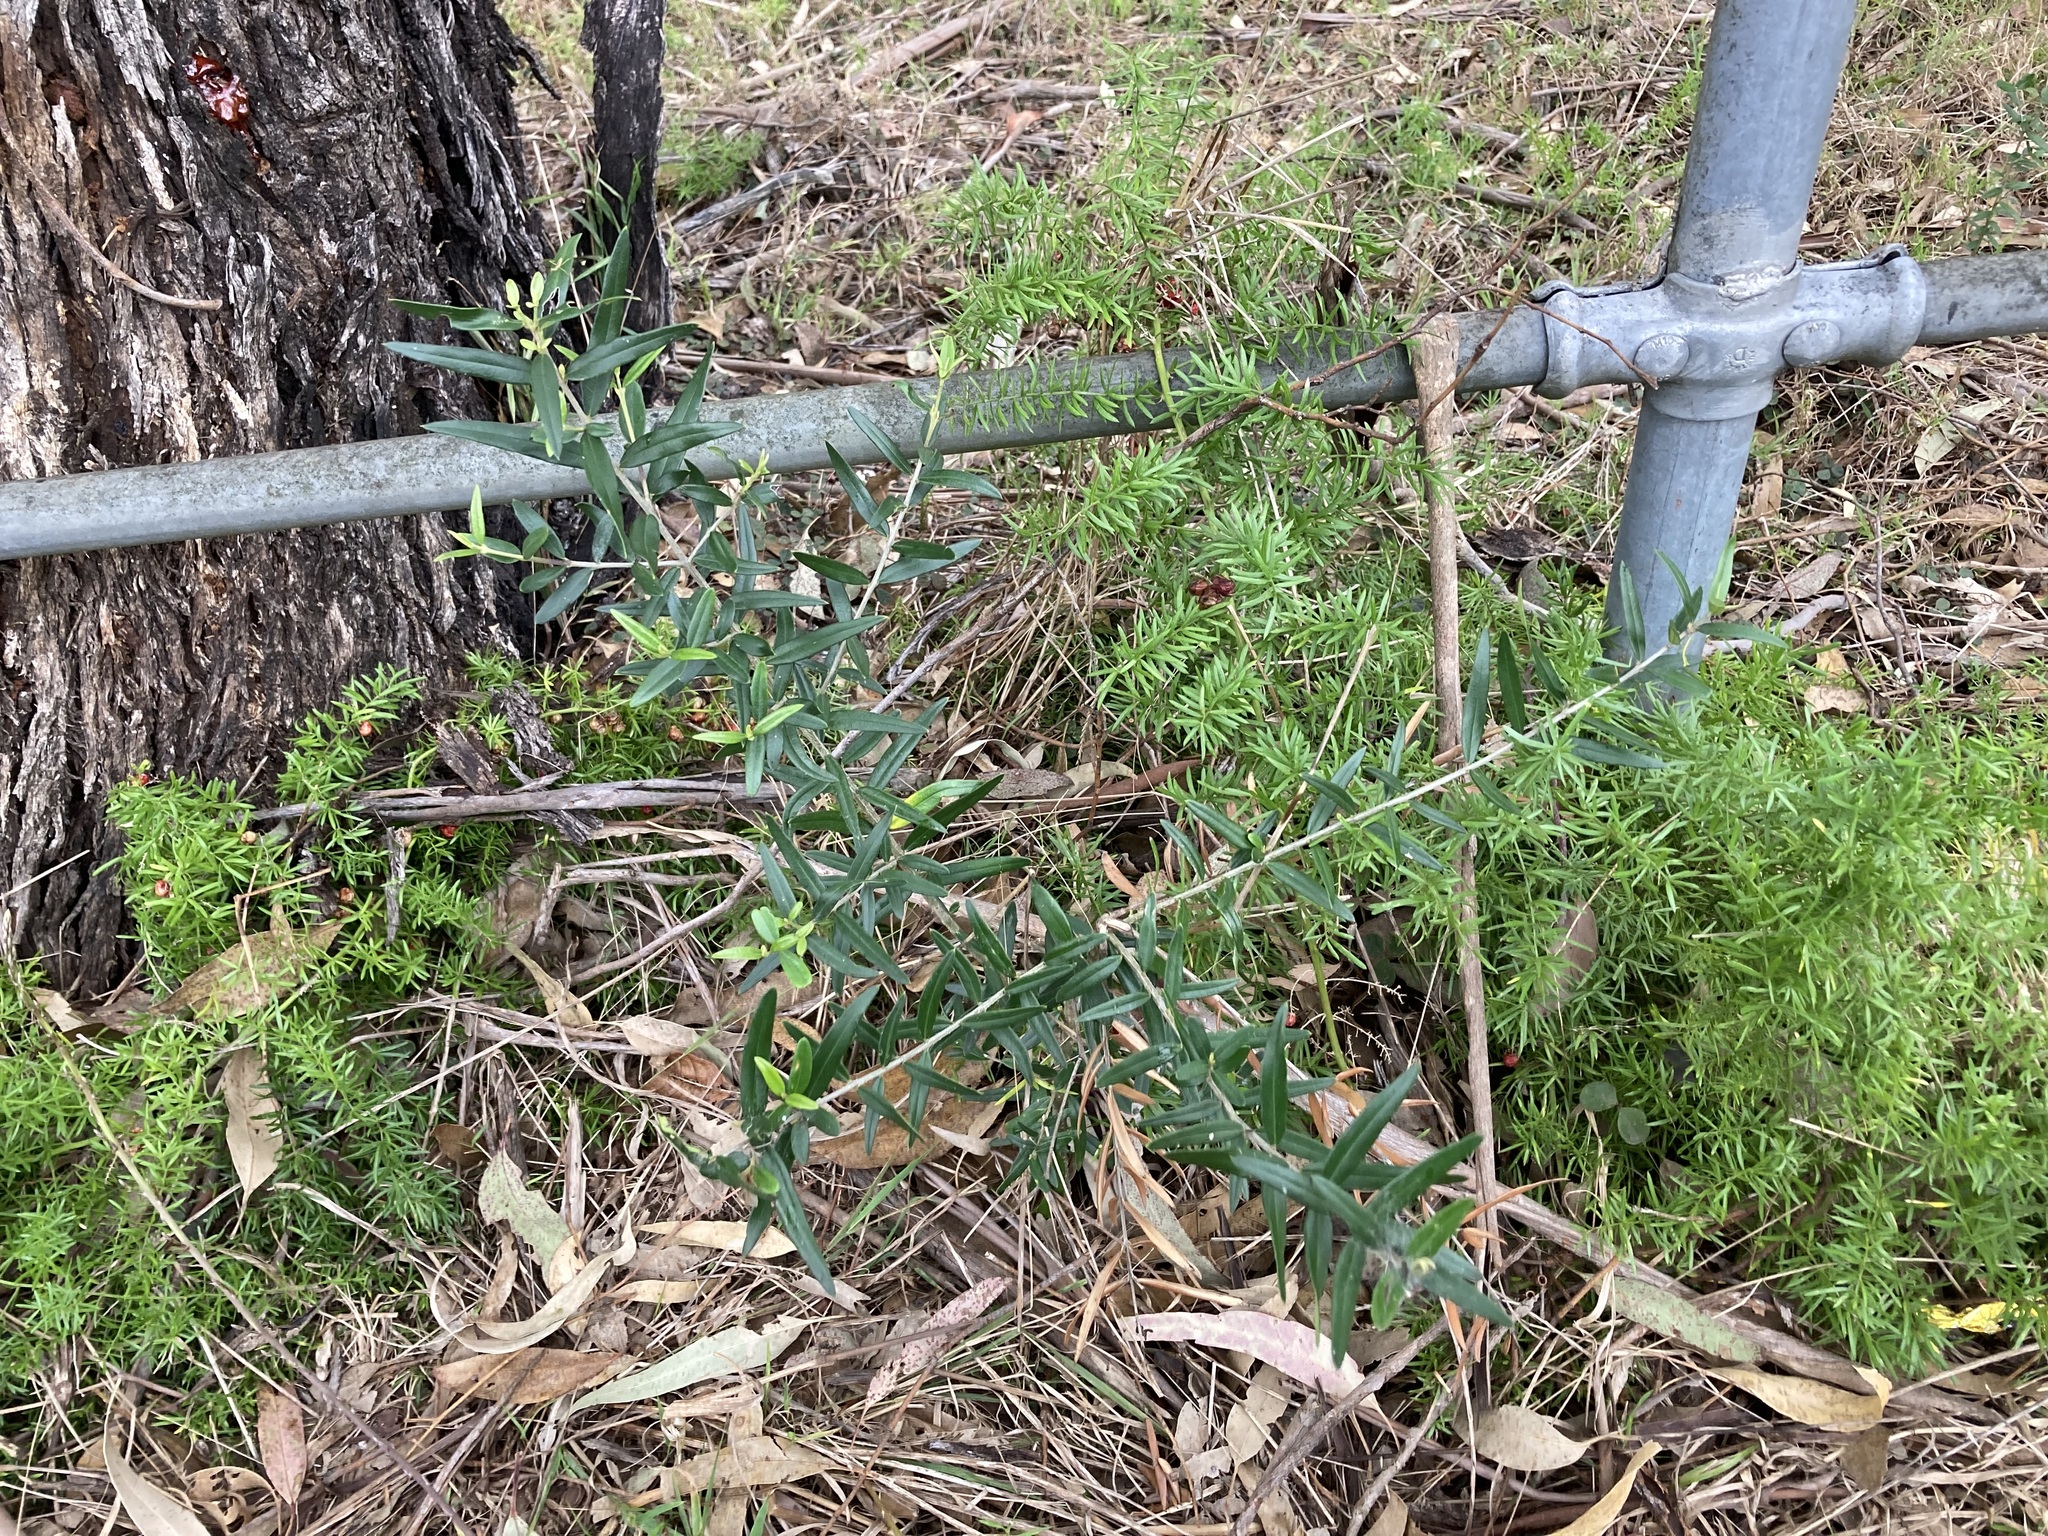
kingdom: Plantae
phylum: Tracheophyta
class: Magnoliopsida
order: Lamiales
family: Oleaceae
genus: Olea
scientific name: Olea europaea
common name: Olive
